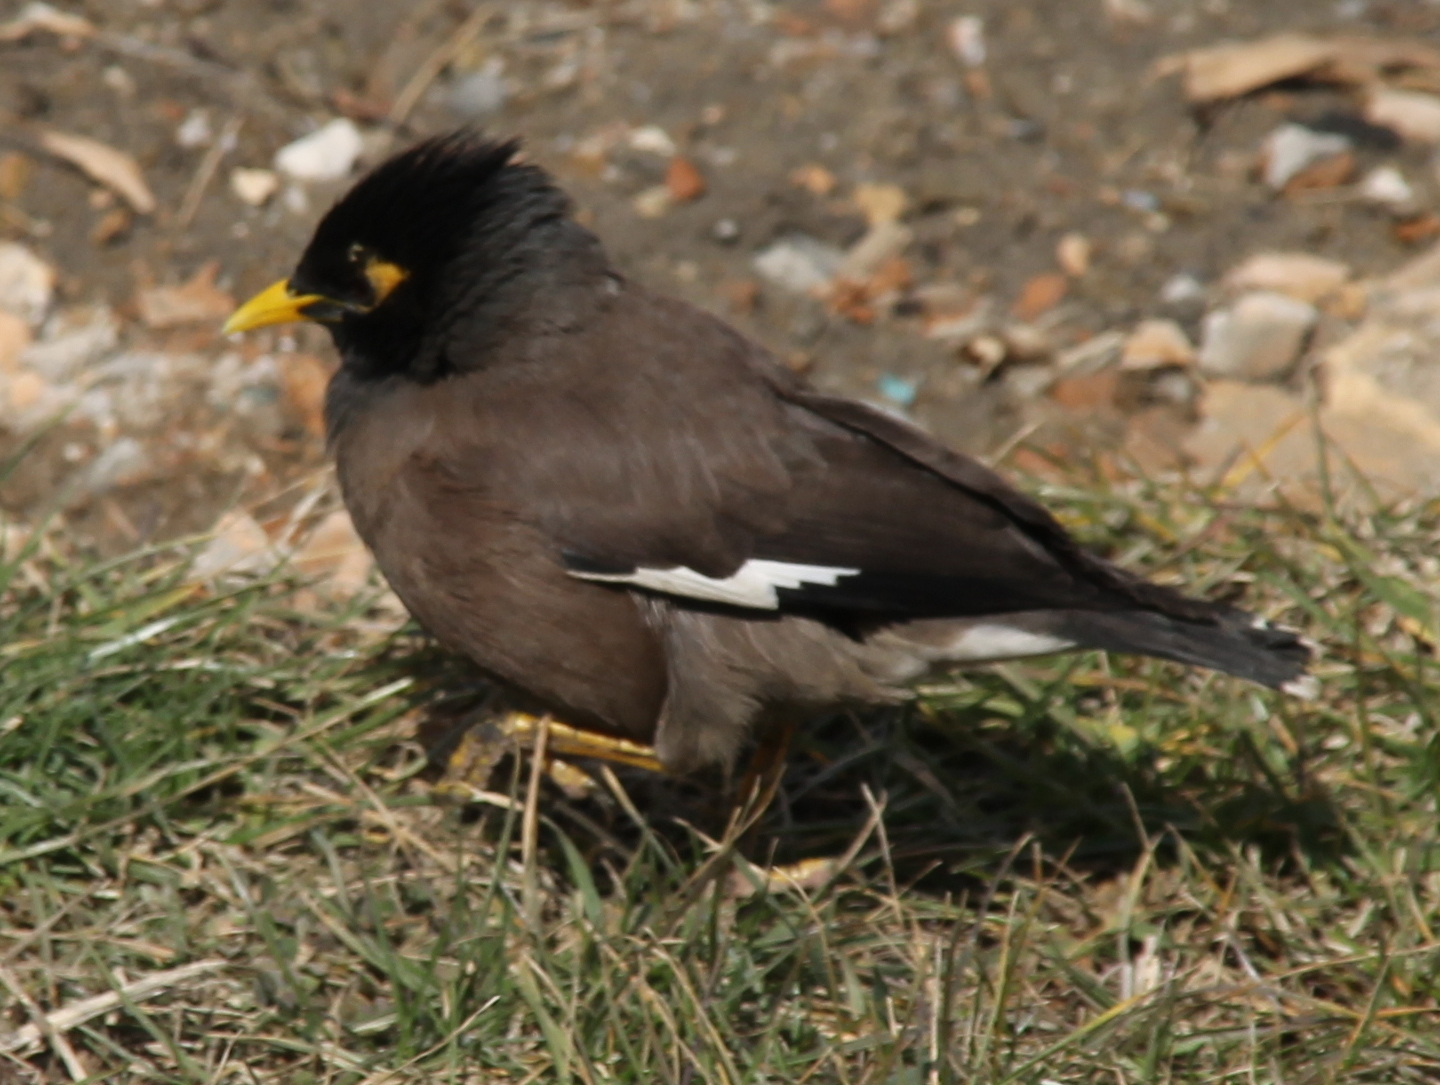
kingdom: Animalia
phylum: Chordata
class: Aves
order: Passeriformes
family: Sturnidae
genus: Acridotheres
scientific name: Acridotheres tristis
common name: Common myna
